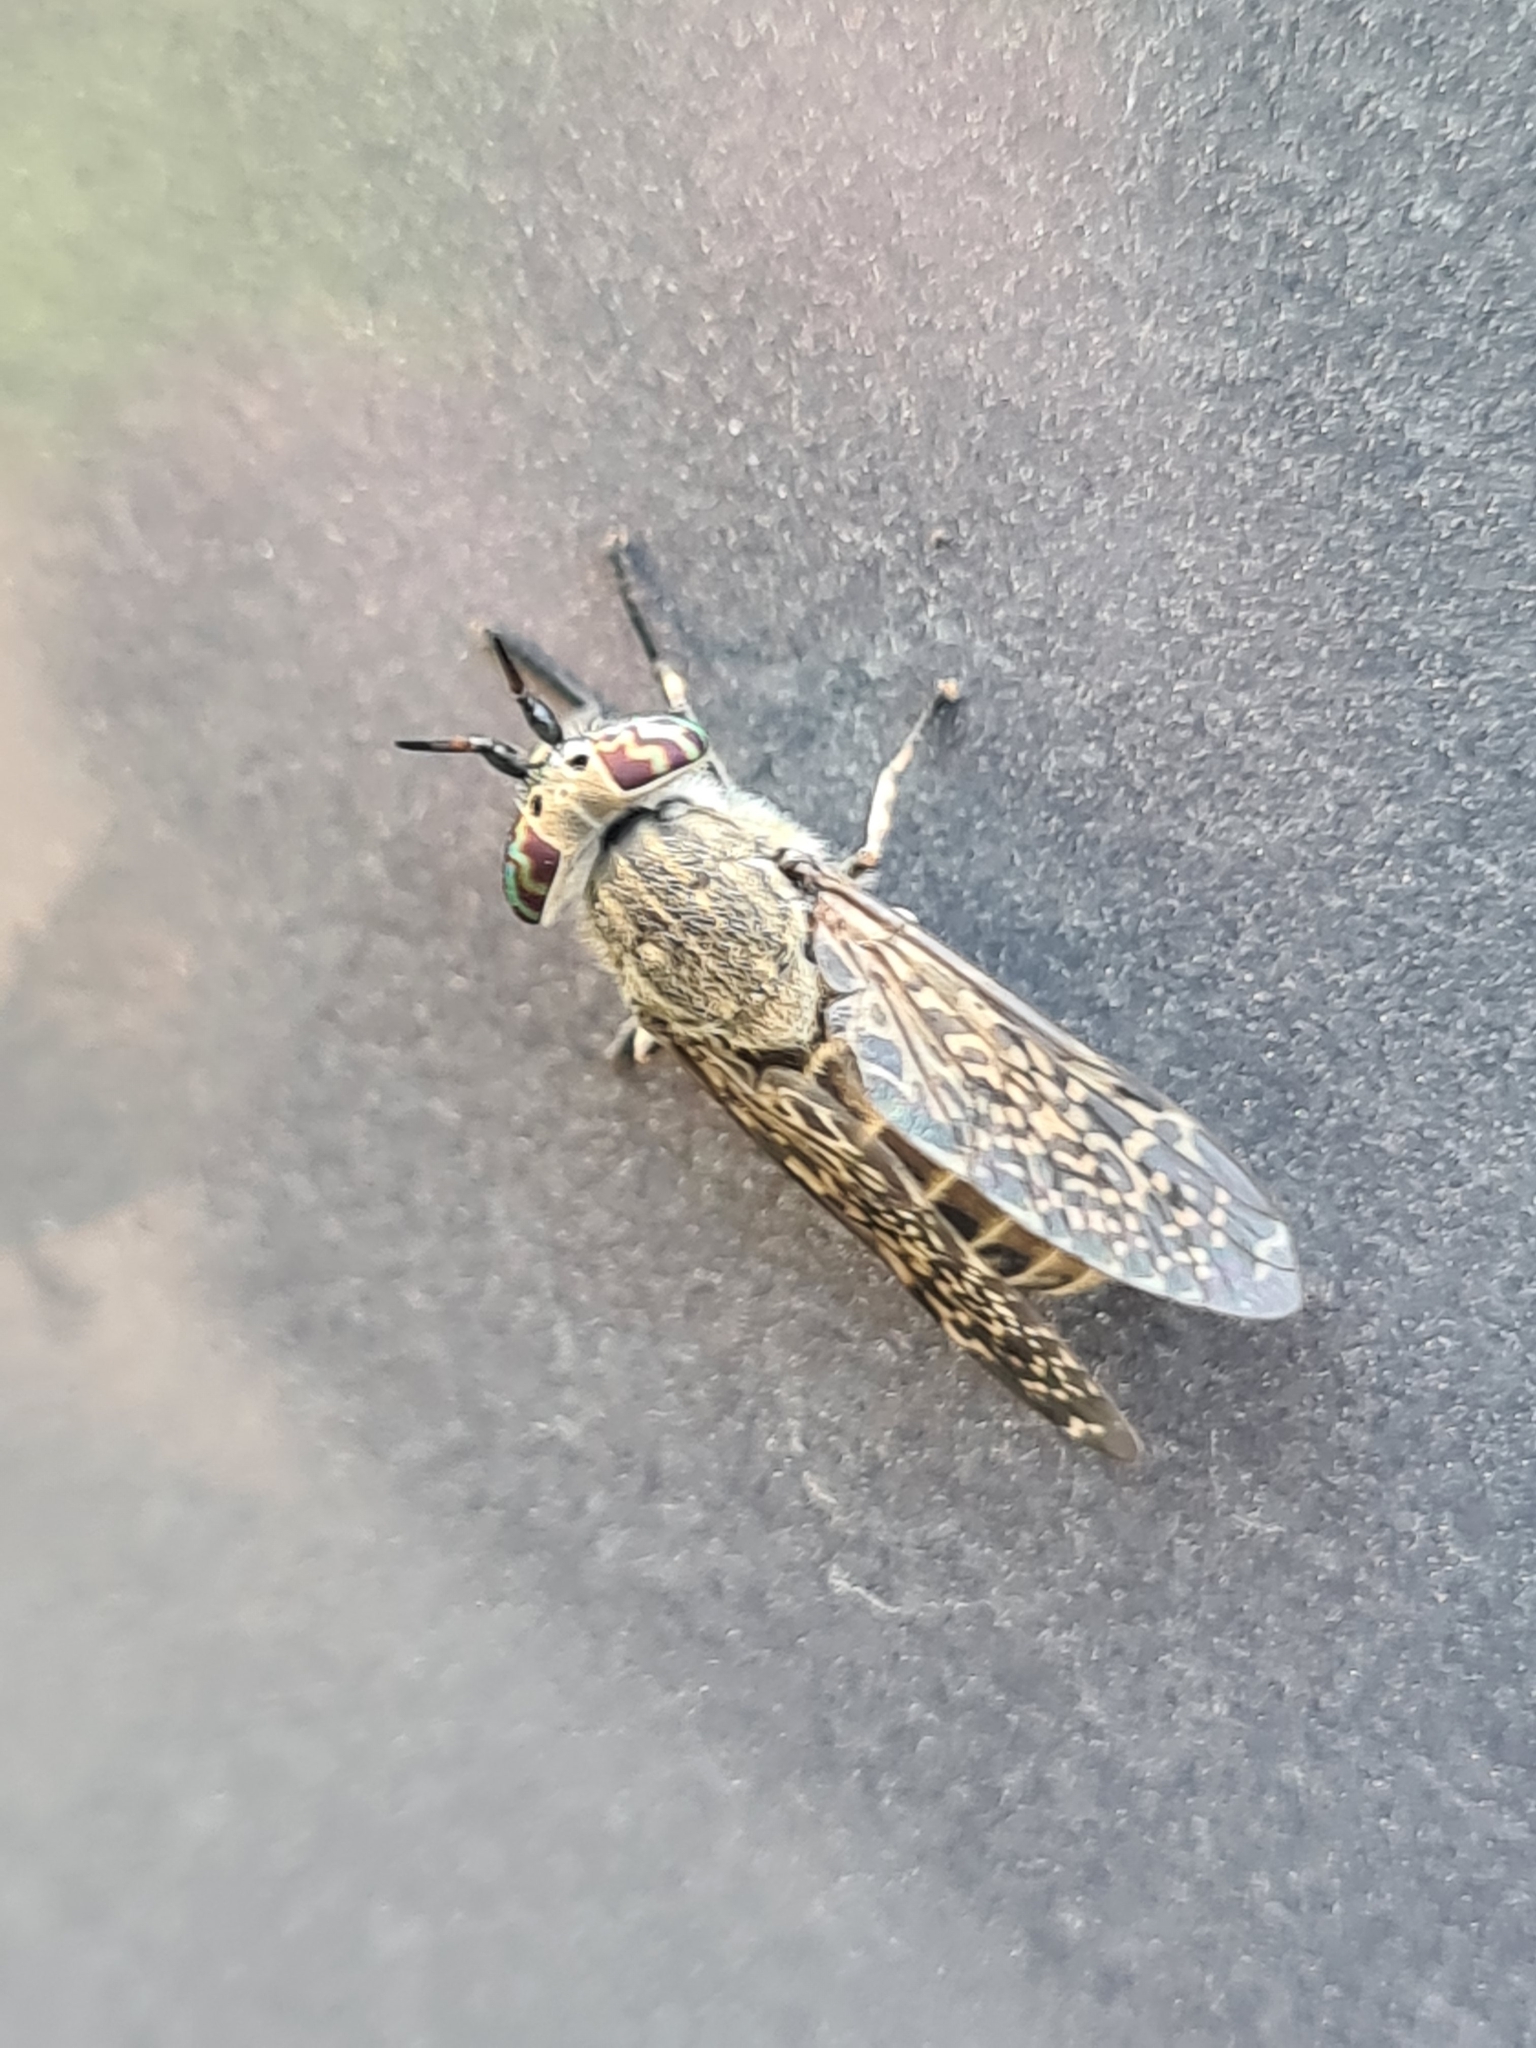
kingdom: Animalia
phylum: Arthropoda
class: Insecta
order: Diptera
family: Tabanidae
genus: Haematopota
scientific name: Haematopota pluvialis
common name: Common horse fly
